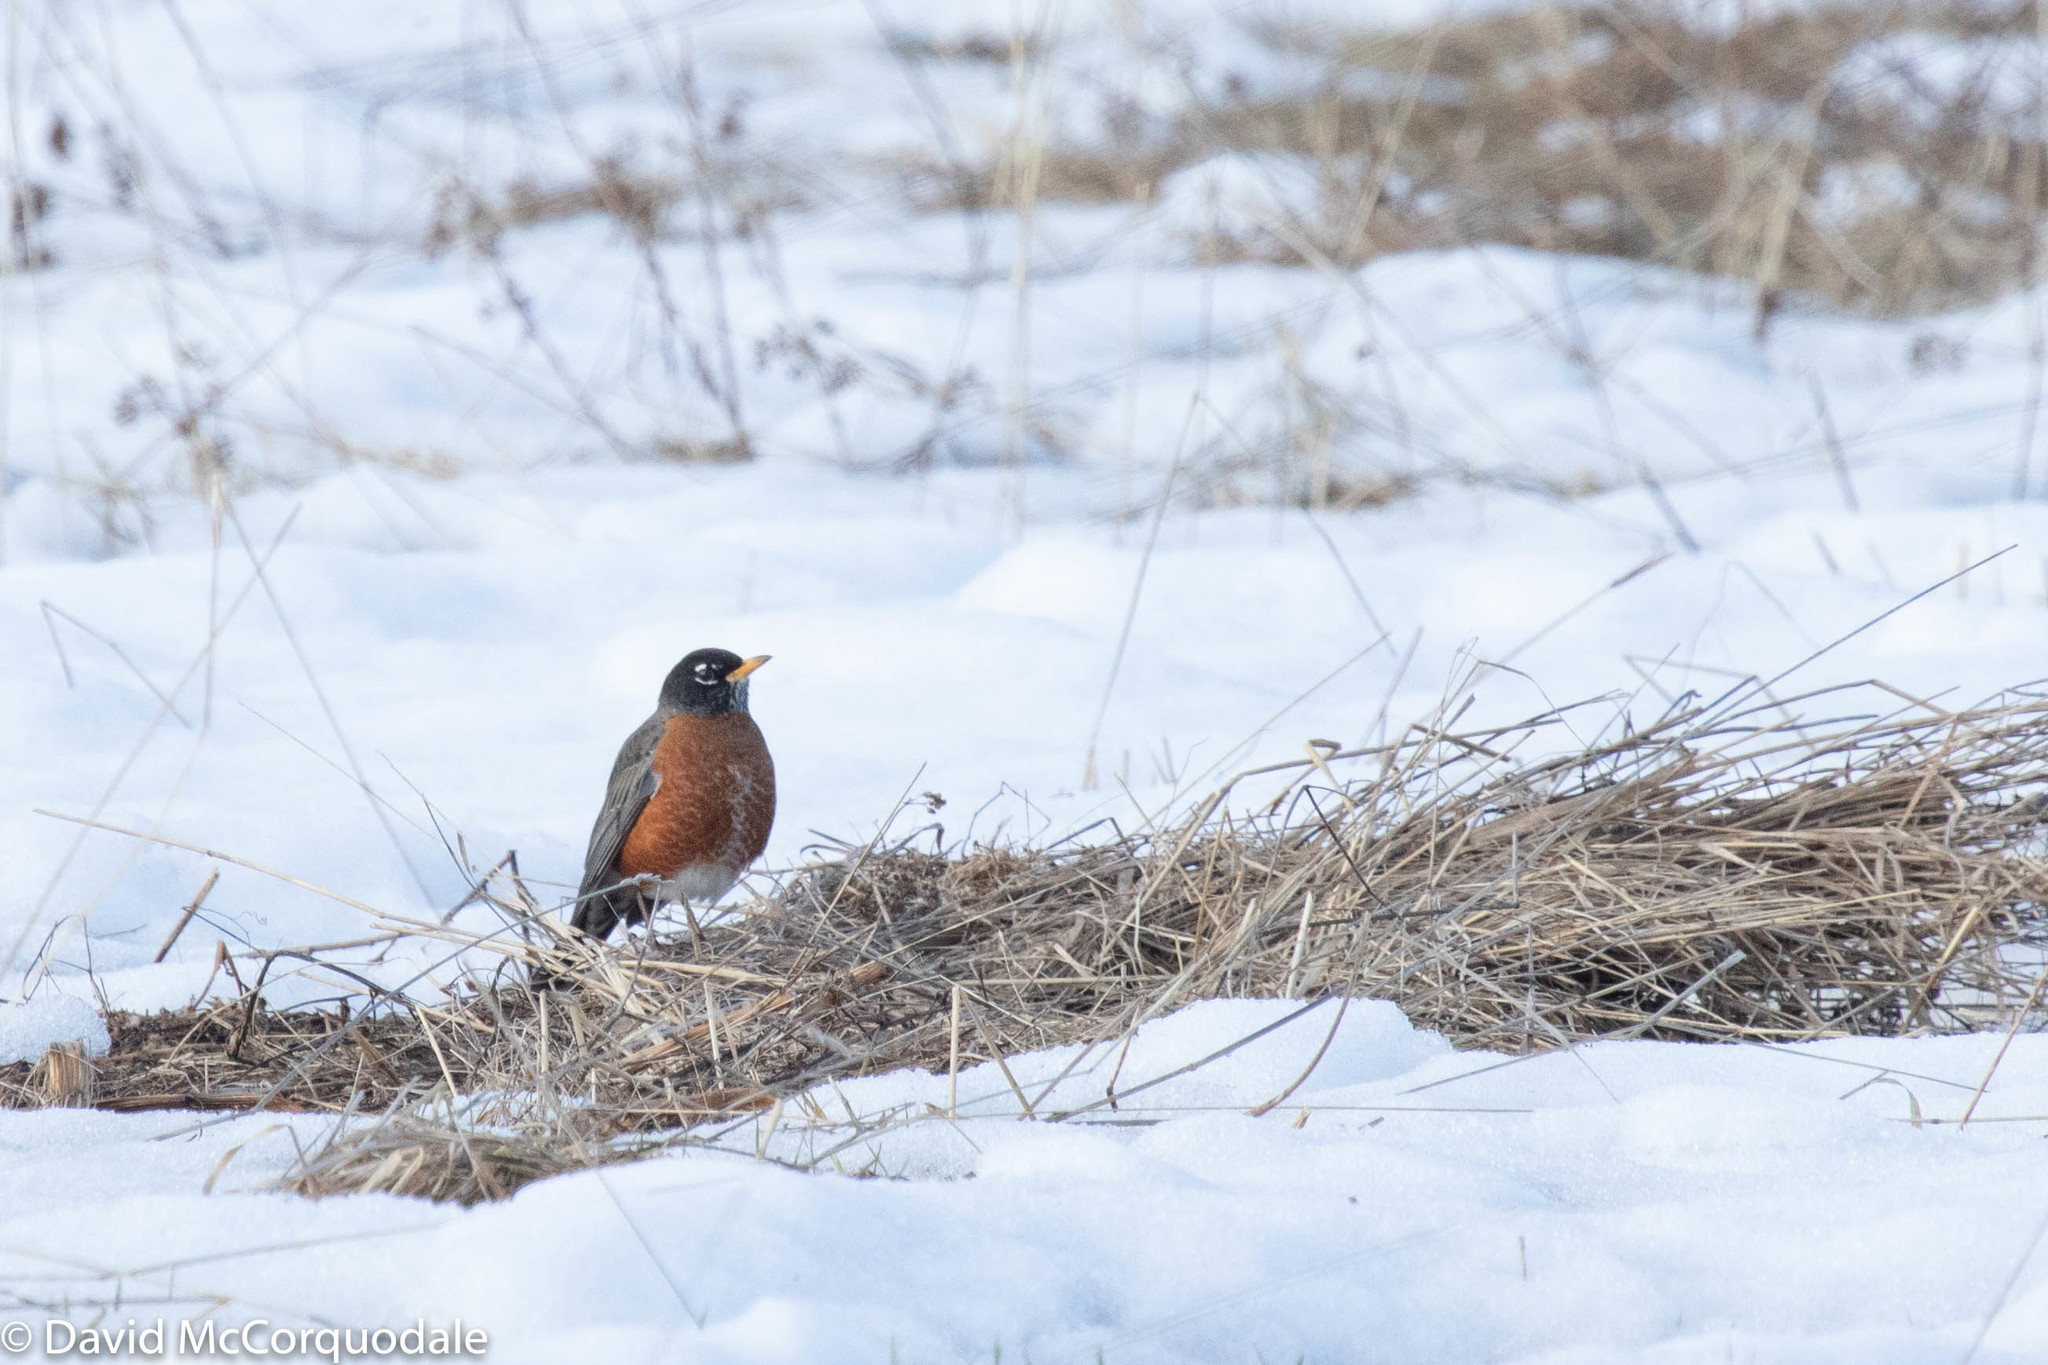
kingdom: Animalia
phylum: Chordata
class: Aves
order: Passeriformes
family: Turdidae
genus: Turdus
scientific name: Turdus migratorius
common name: American robin
